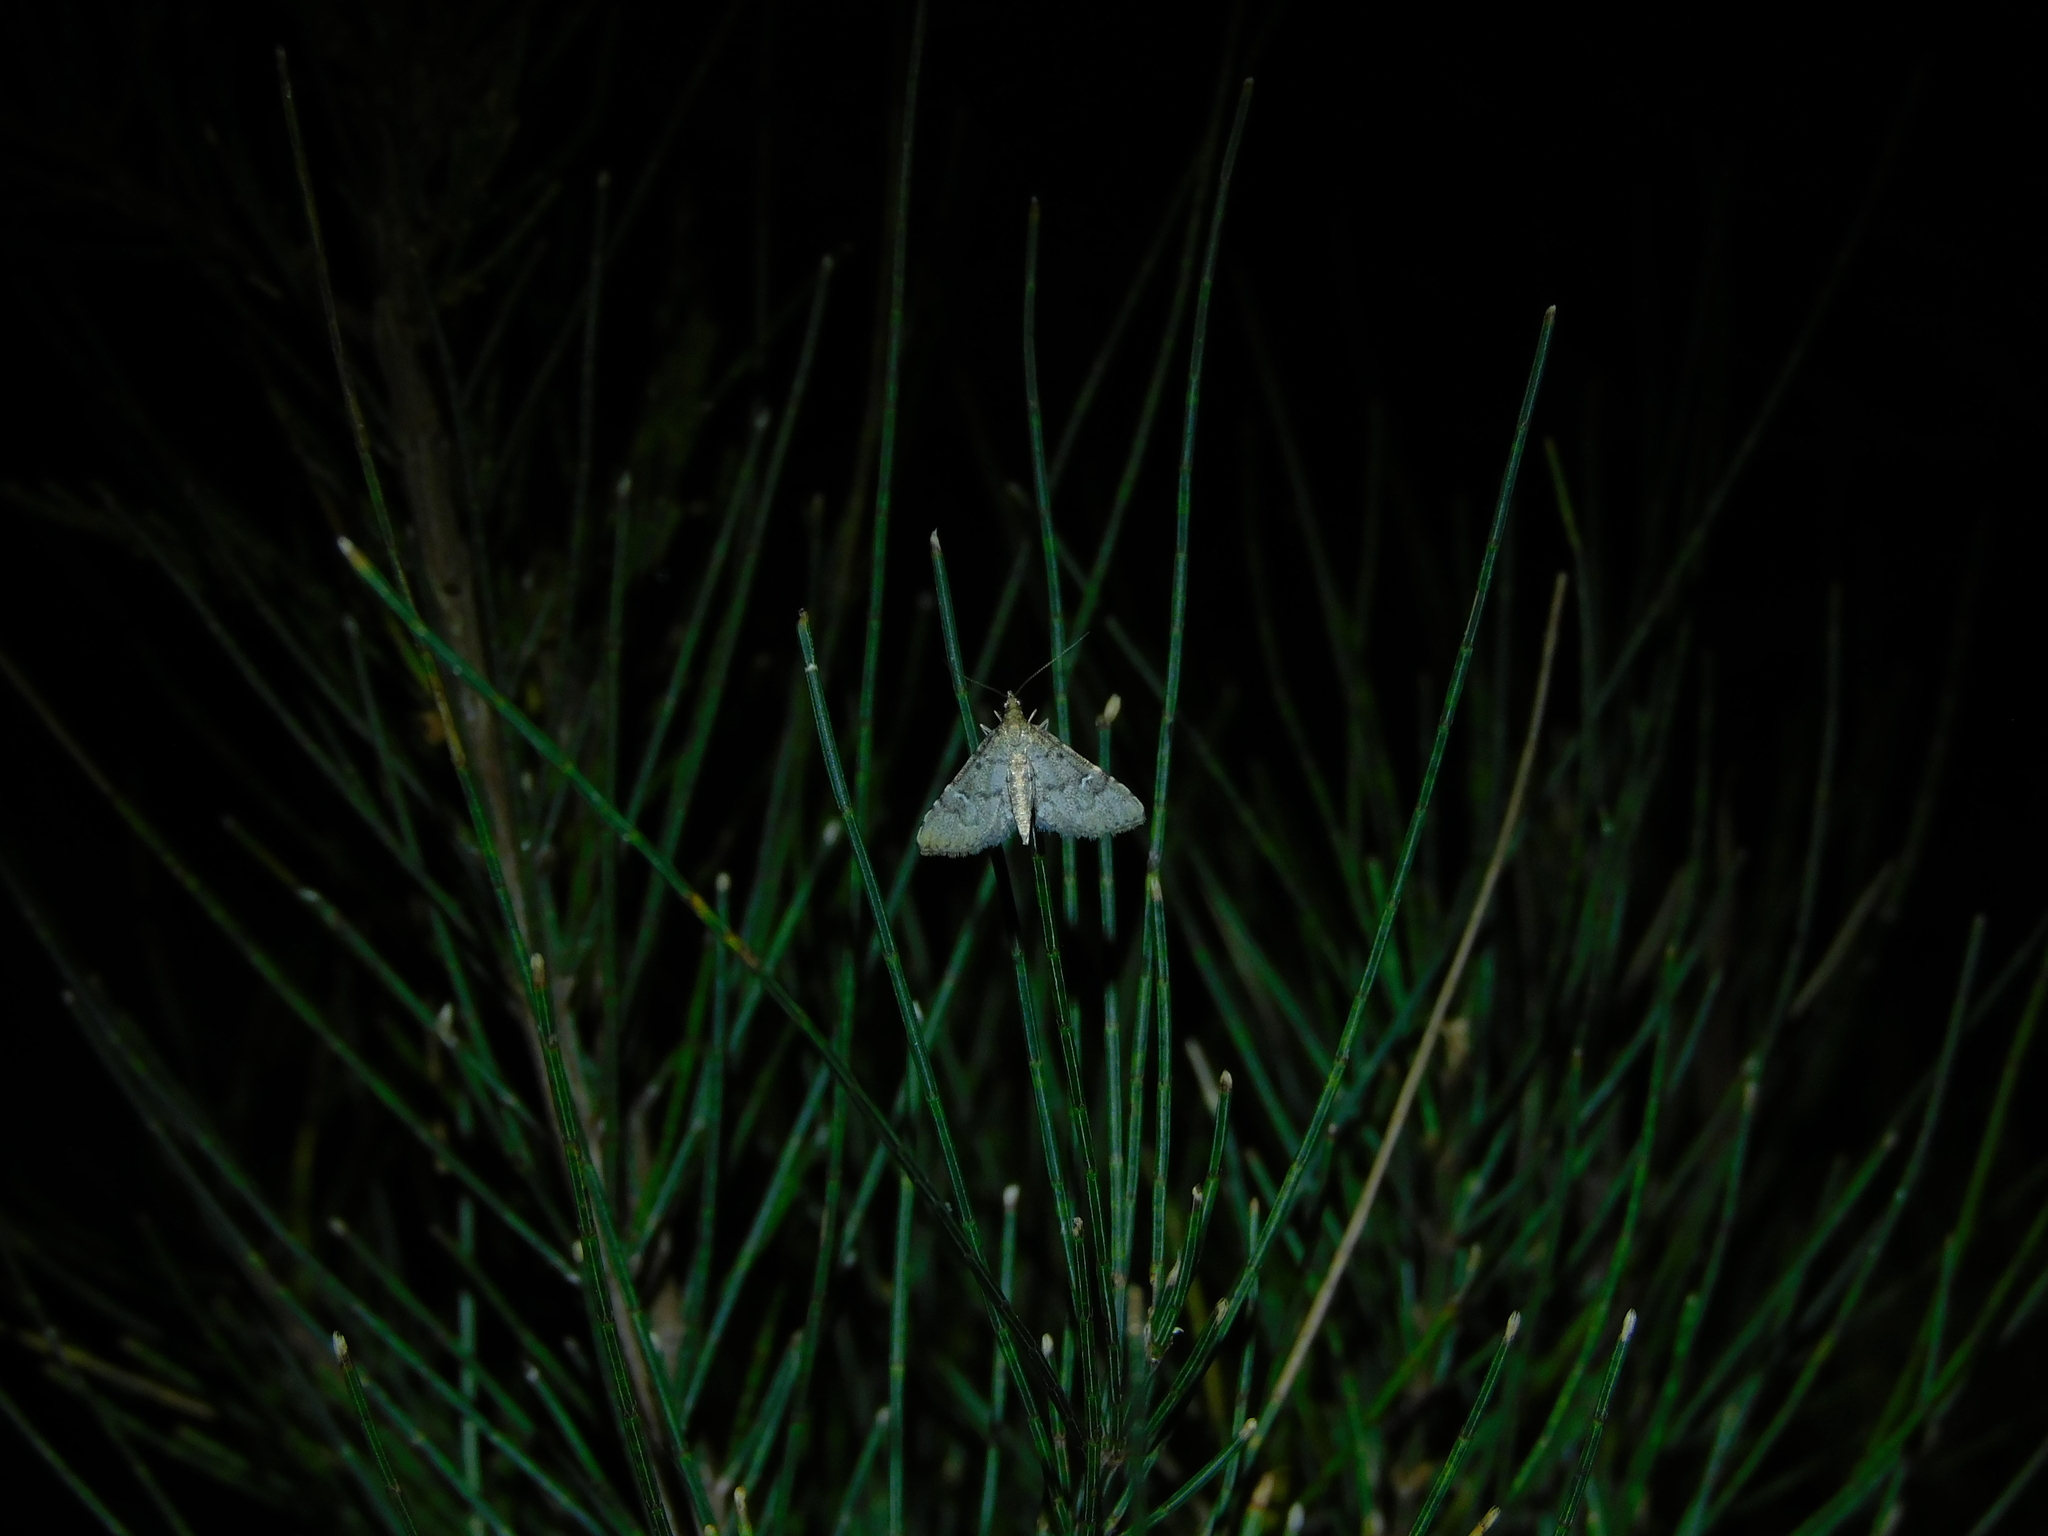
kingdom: Animalia
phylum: Arthropoda
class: Insecta
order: Lepidoptera
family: Crambidae
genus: Metasia
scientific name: Metasia capnochroa
